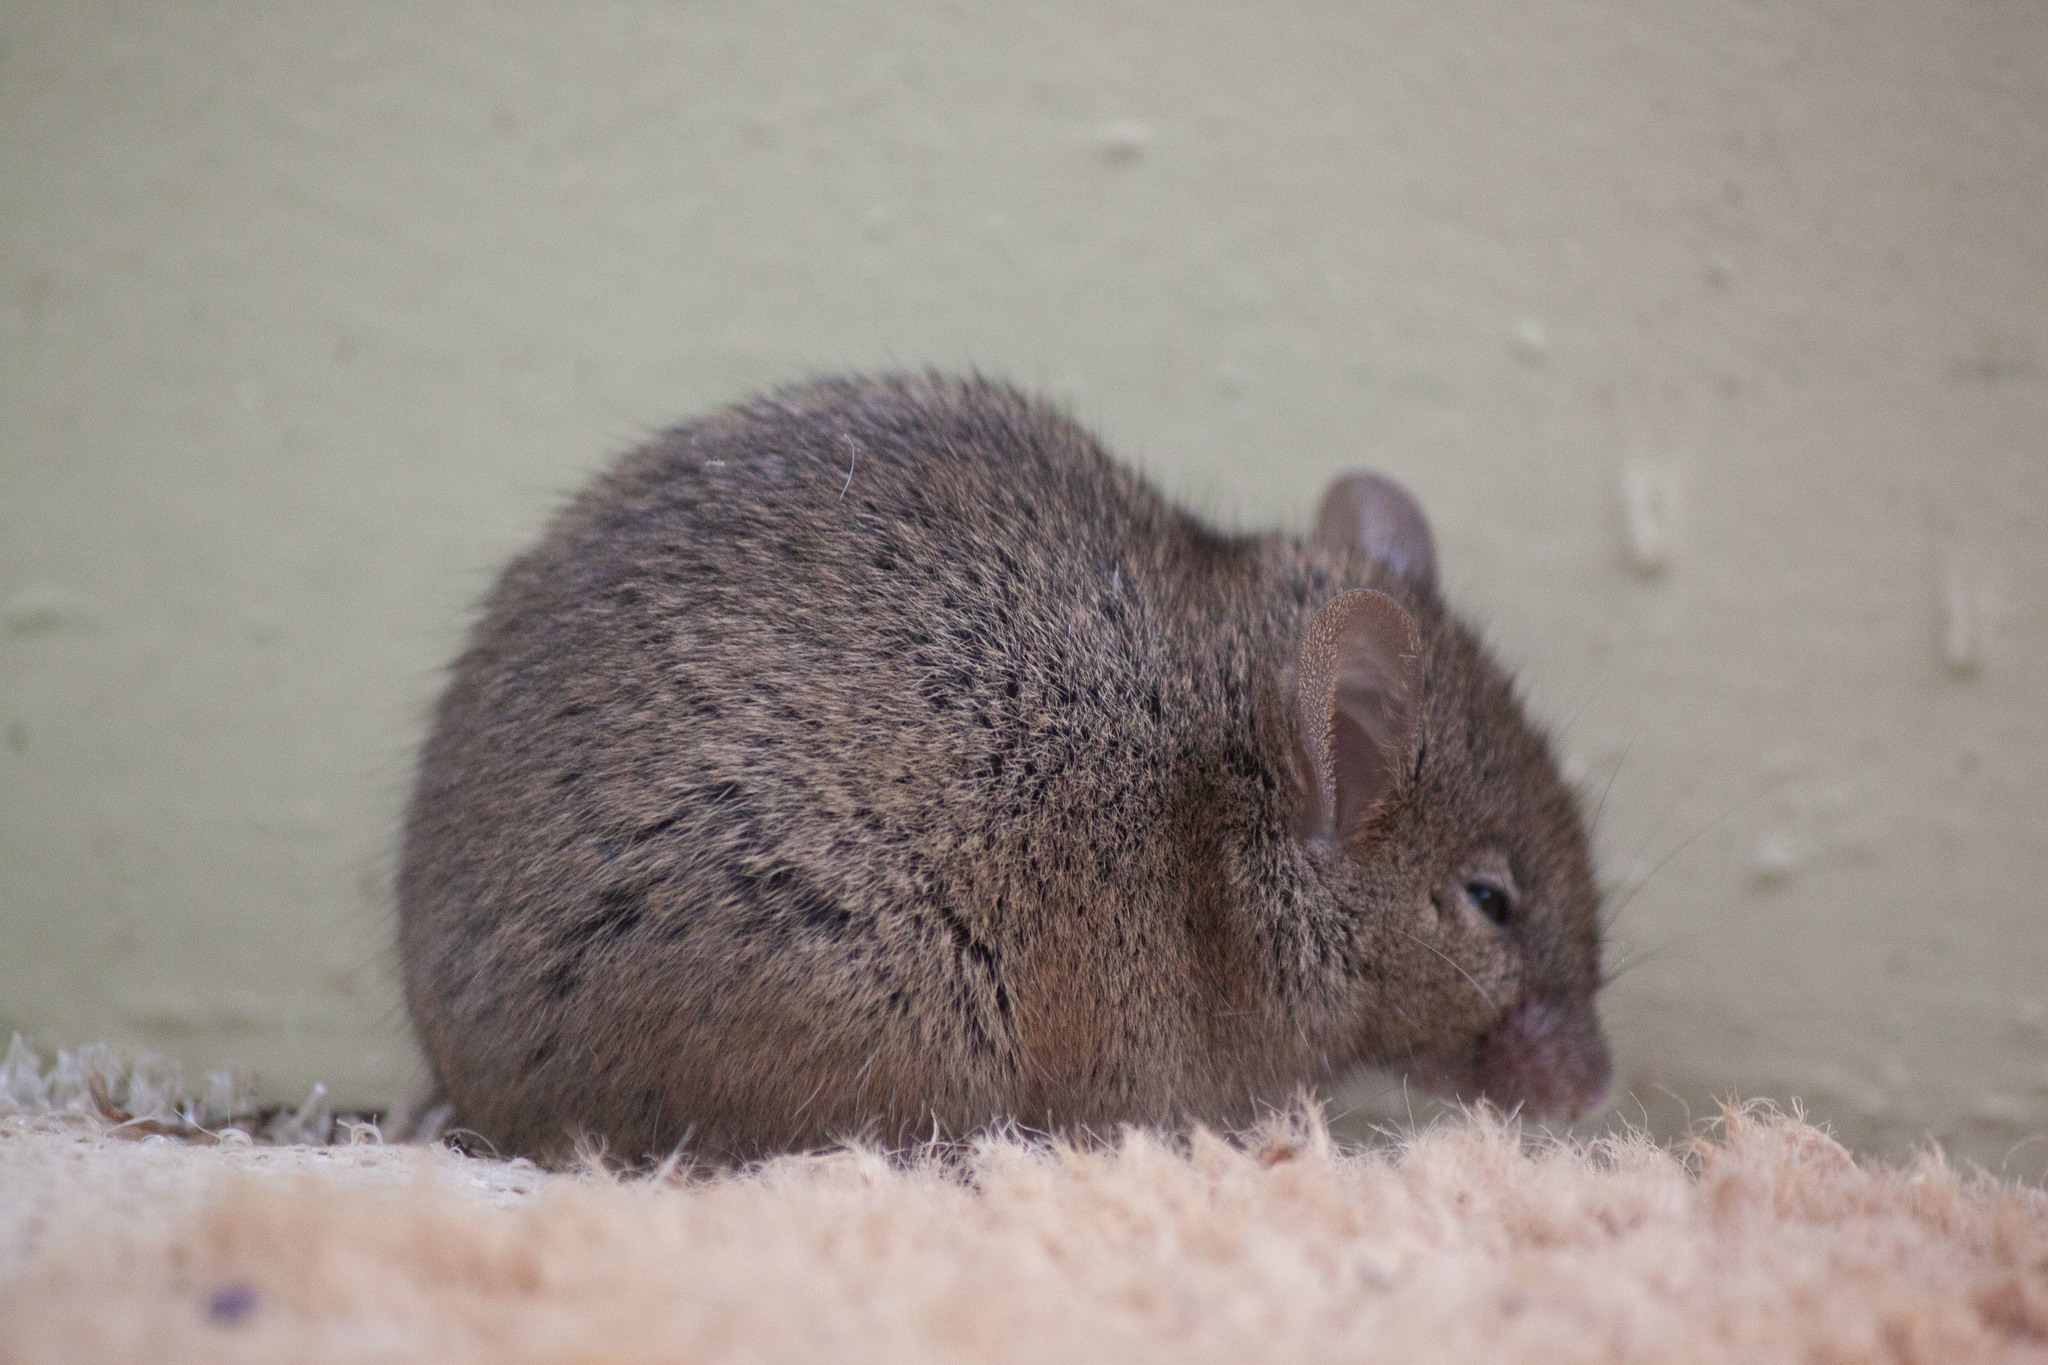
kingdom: Animalia
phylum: Chordata
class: Mammalia
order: Rodentia
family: Muridae
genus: Mus
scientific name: Mus musculus
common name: House mouse
